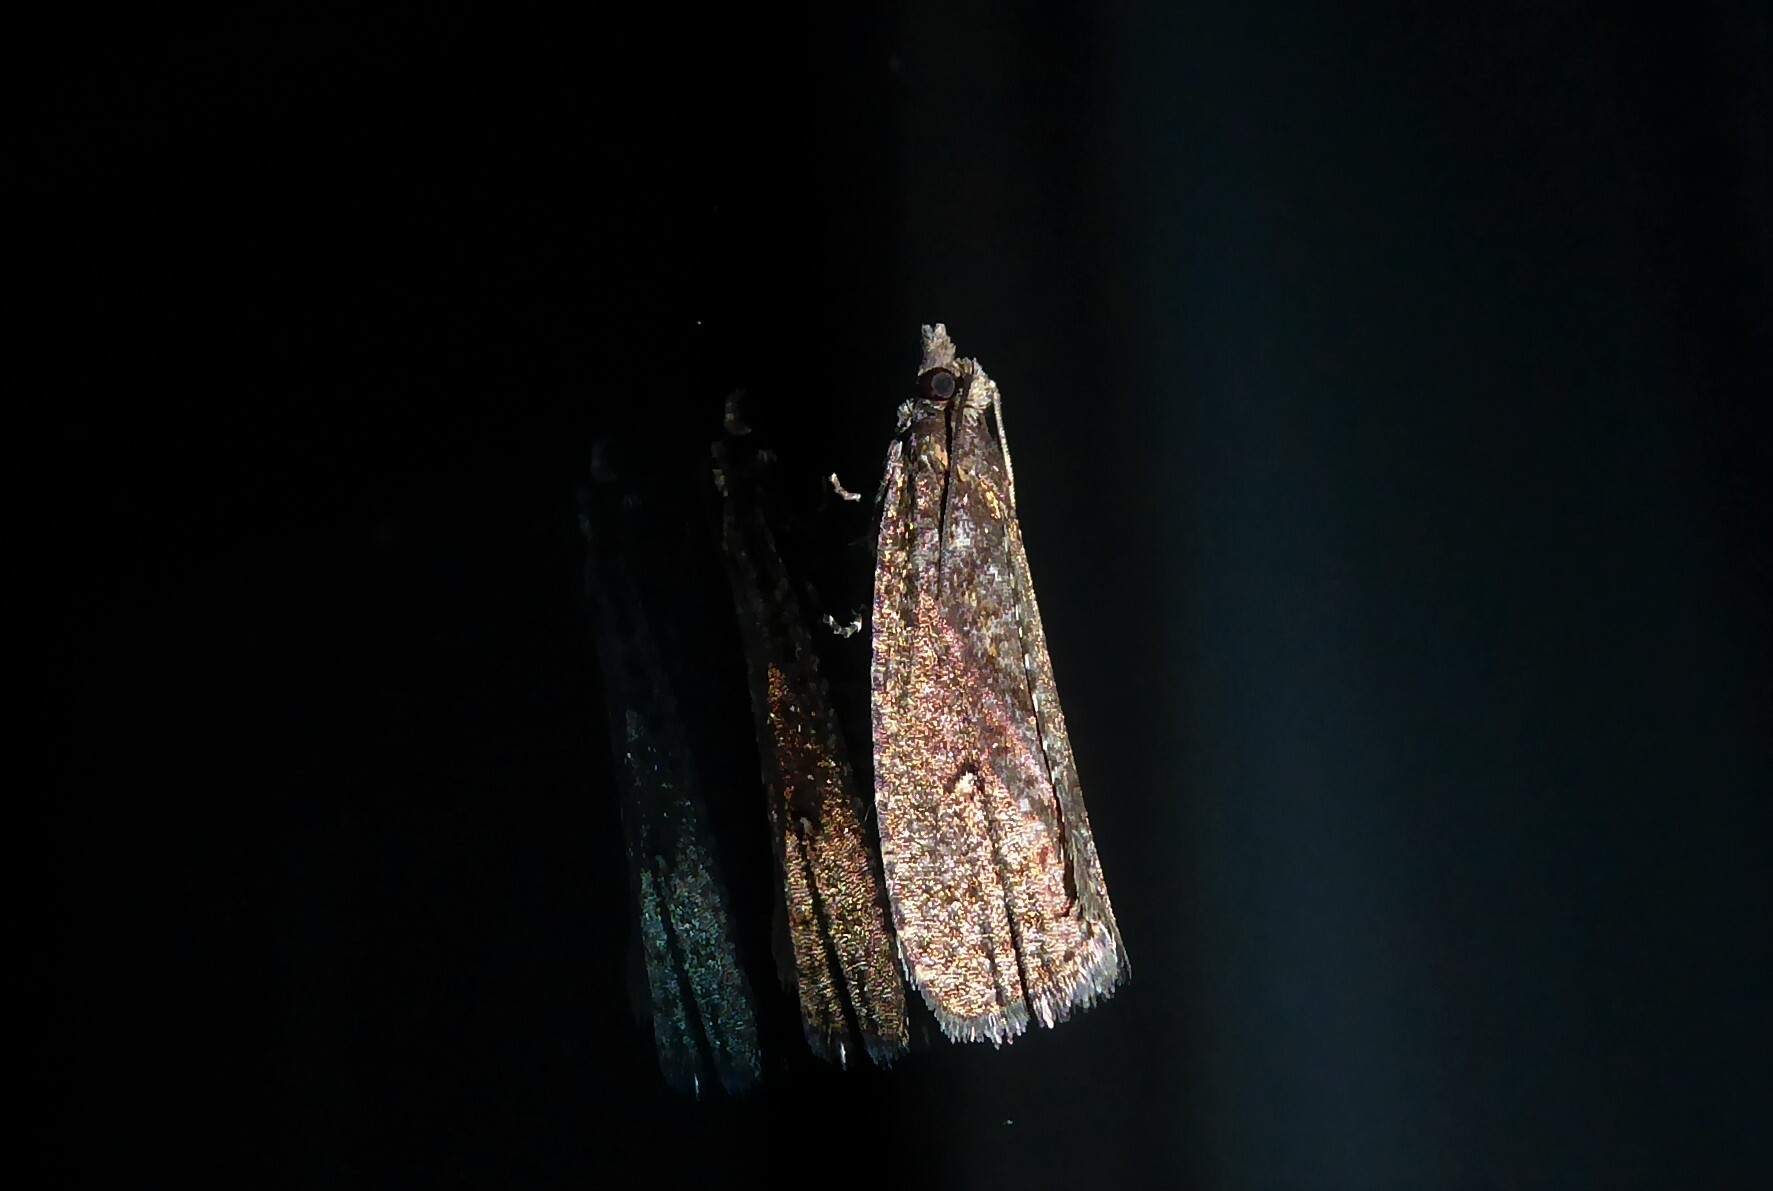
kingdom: Animalia
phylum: Arthropoda
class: Insecta
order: Lepidoptera
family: Tortricidae
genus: Cryptaspasma
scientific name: Cryptaspasma querula
